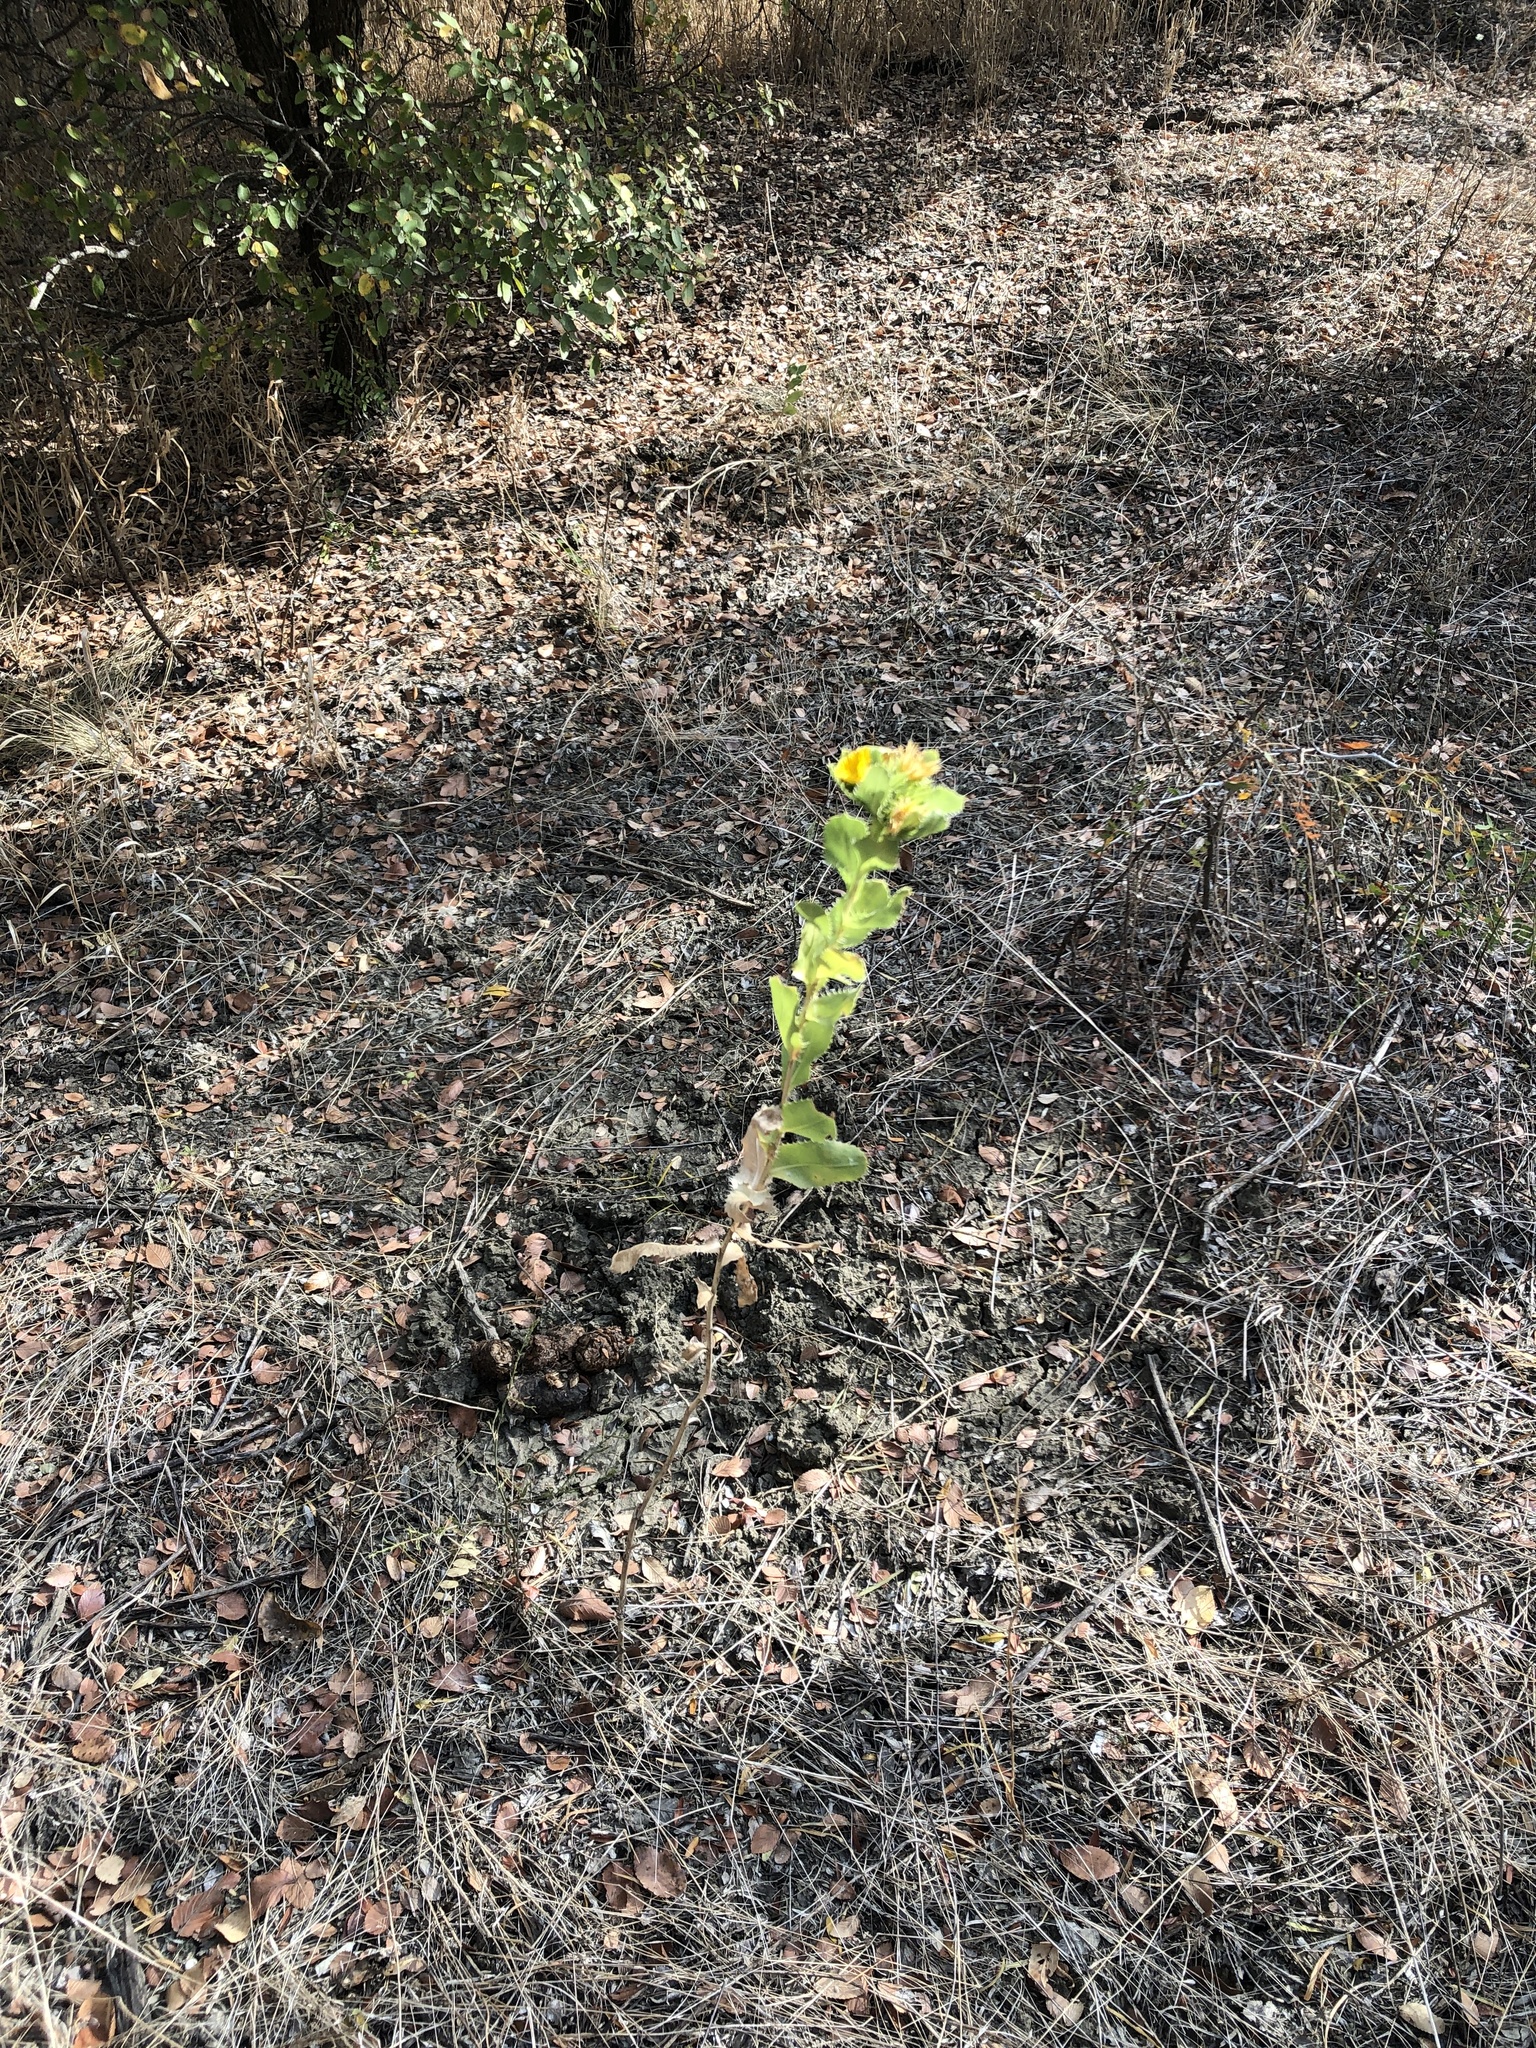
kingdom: Plantae
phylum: Tracheophyta
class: Magnoliopsida
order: Asterales
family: Asteraceae
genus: Grindelia
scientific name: Grindelia ciliata
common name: Goldenweed
